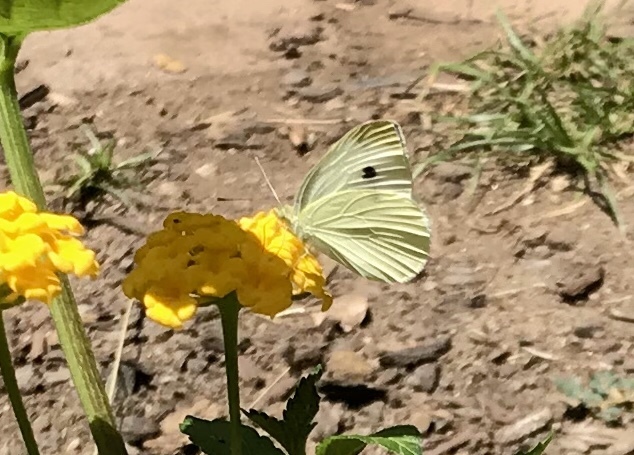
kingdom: Animalia
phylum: Arthropoda
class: Insecta
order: Lepidoptera
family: Pieridae
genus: Pieris
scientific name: Pieris rapae
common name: Small white
